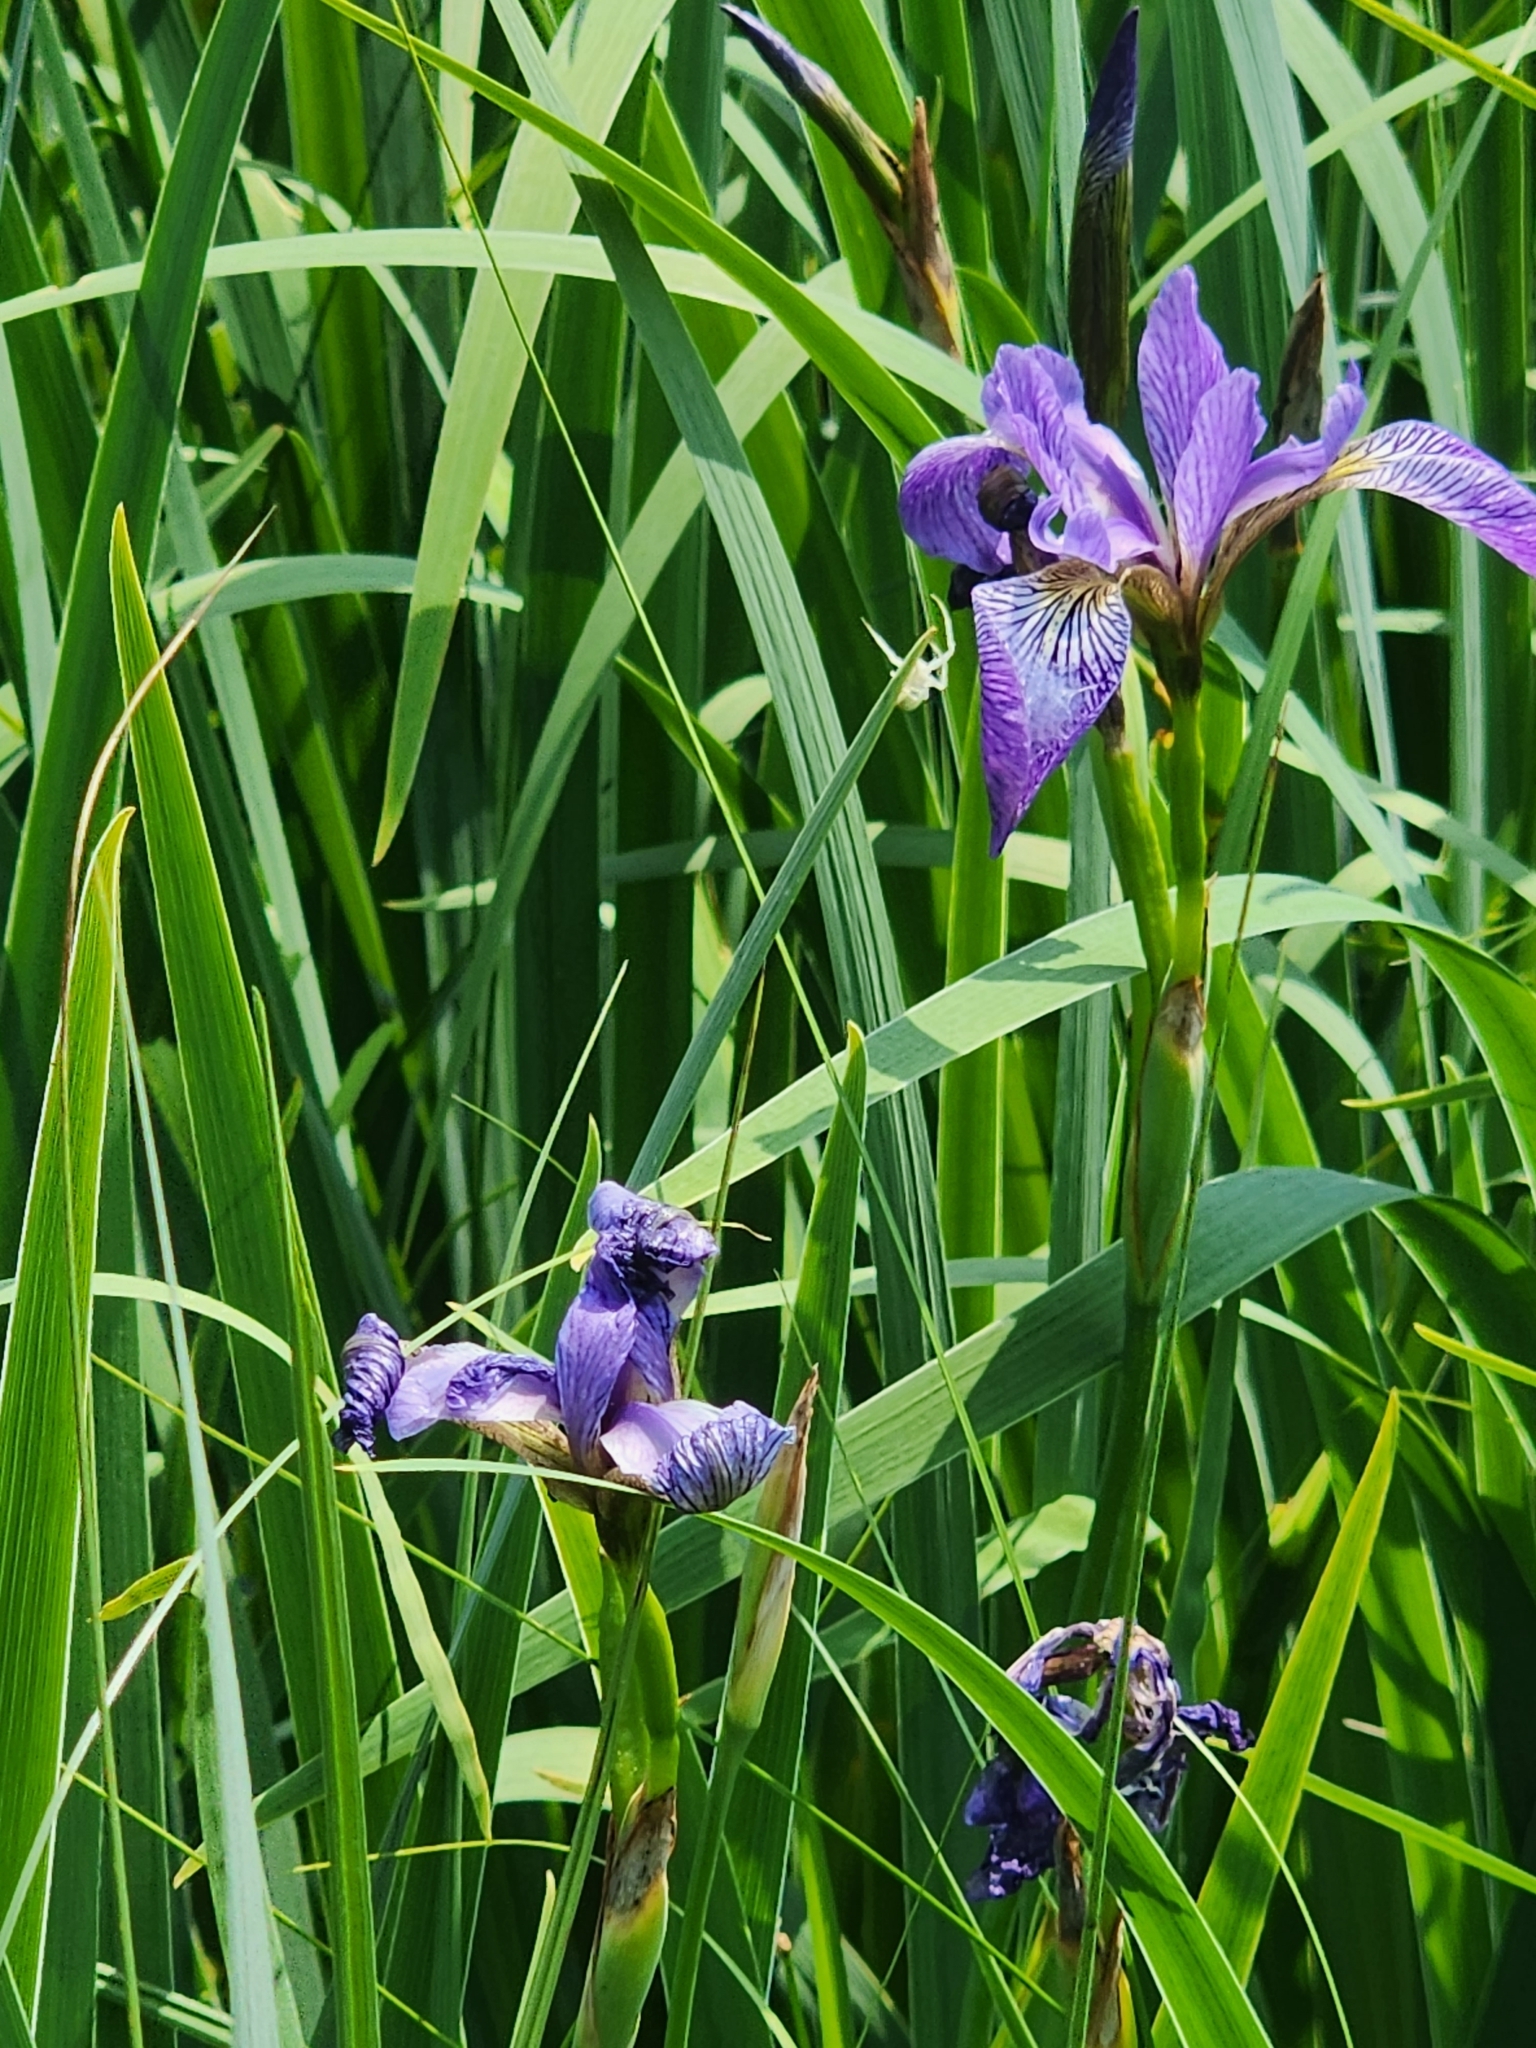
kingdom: Plantae
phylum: Tracheophyta
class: Liliopsida
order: Asparagales
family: Iridaceae
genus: Iris
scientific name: Iris versicolor
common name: Purple iris
